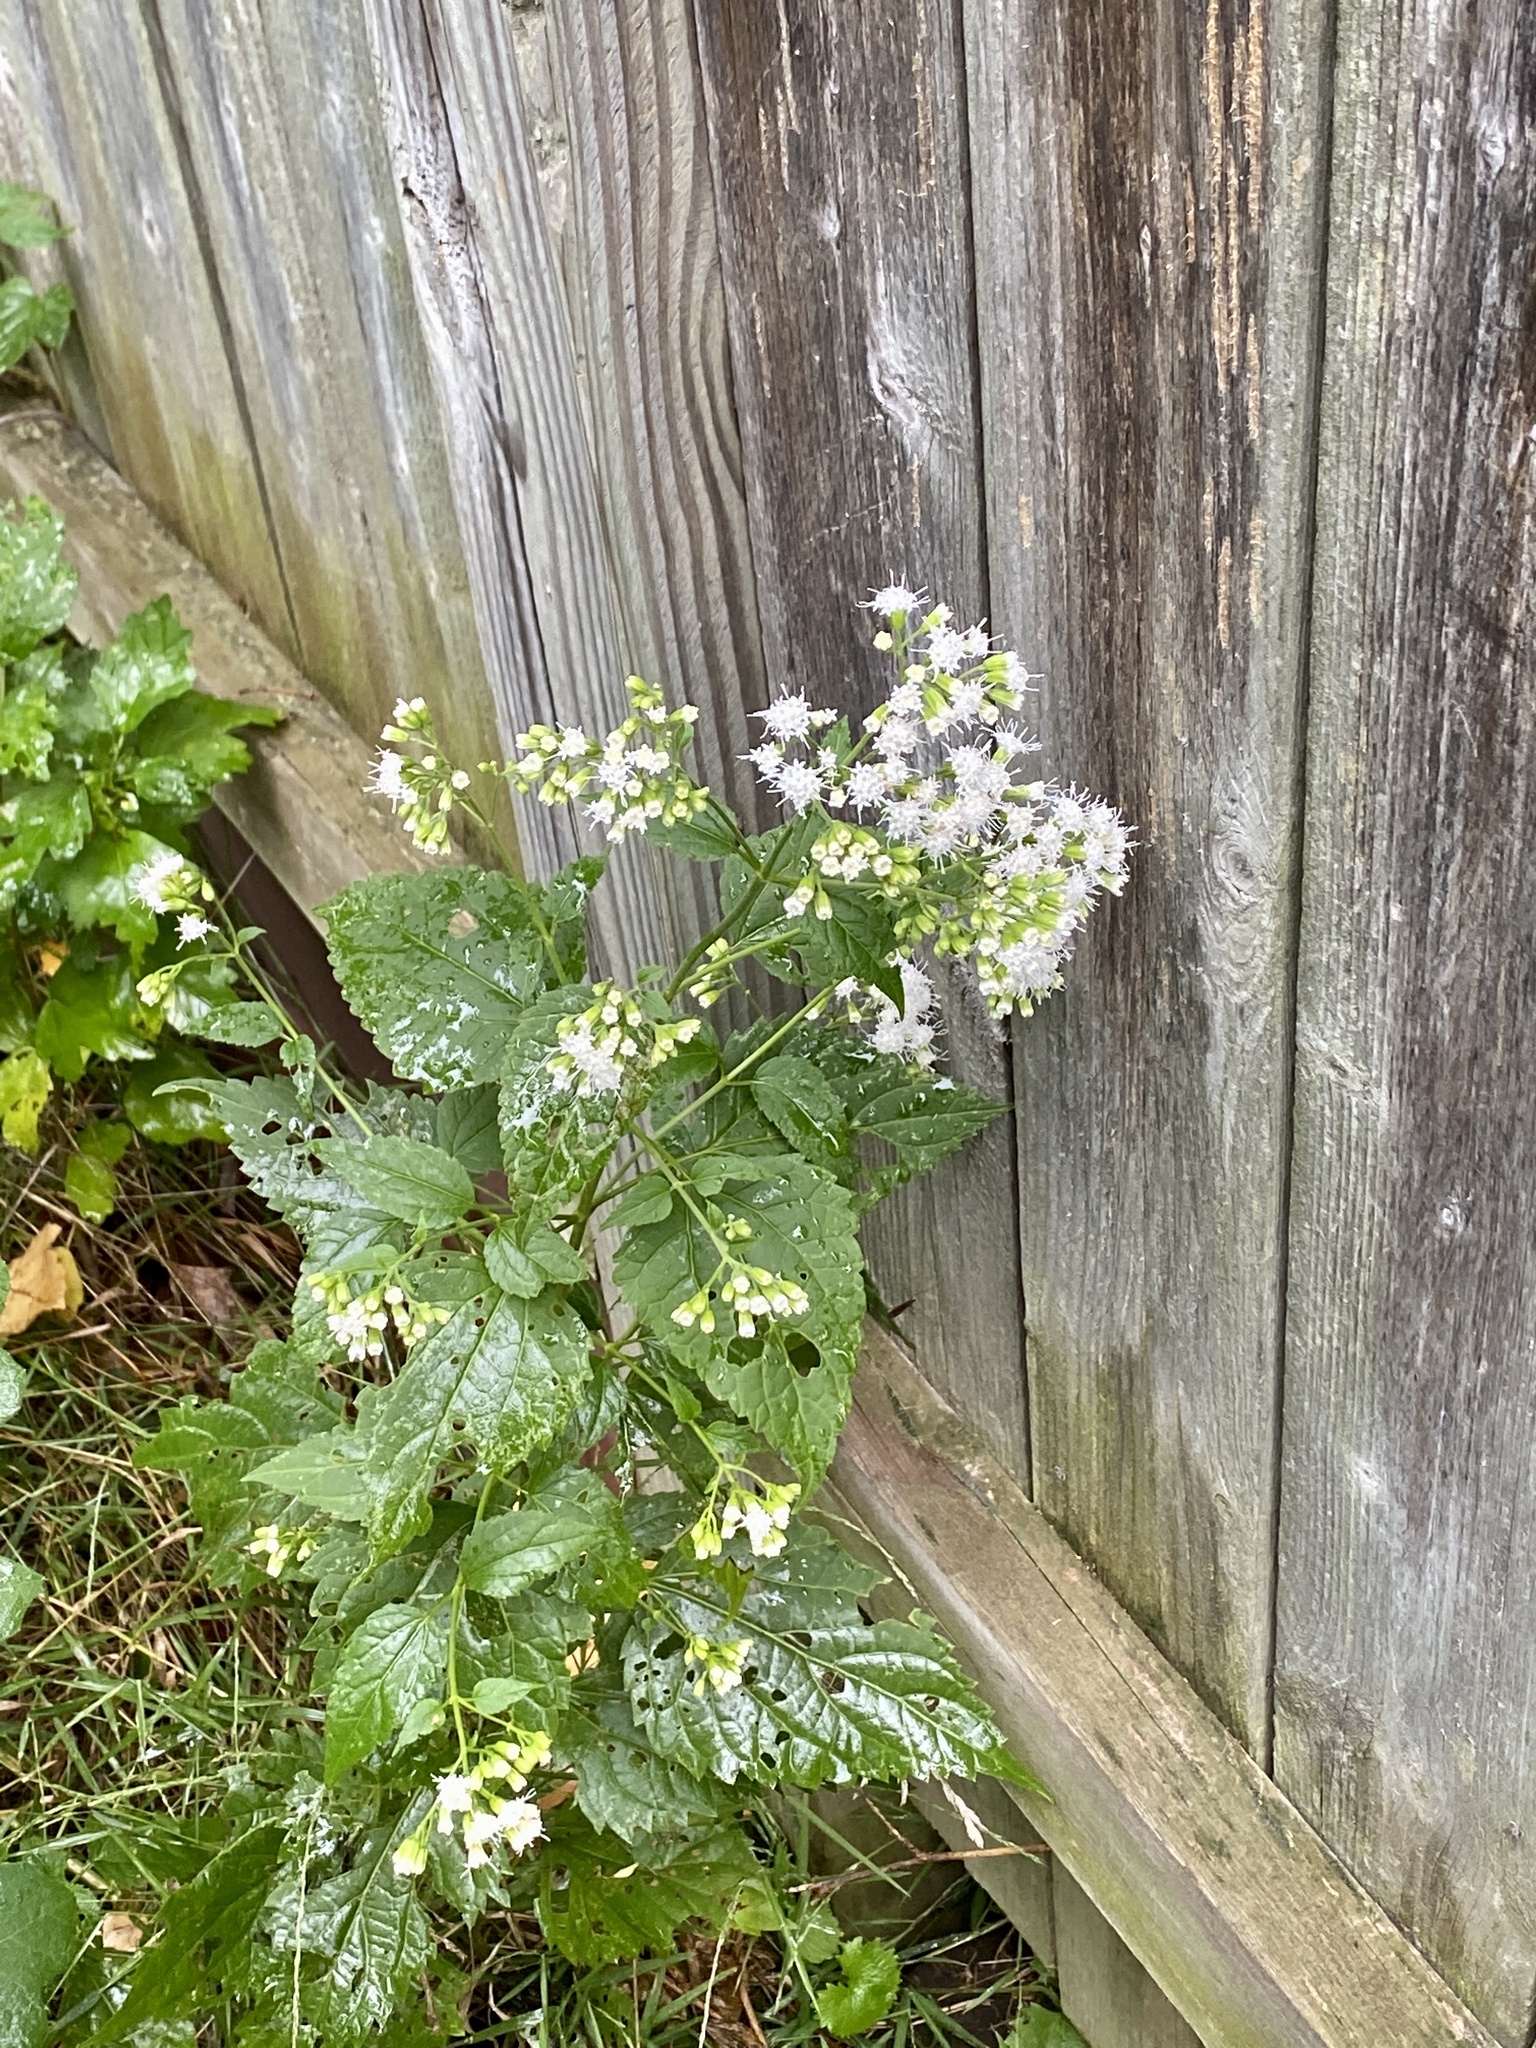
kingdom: Plantae
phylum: Tracheophyta
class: Magnoliopsida
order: Asterales
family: Asteraceae
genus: Ageratina
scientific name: Ageratina altissima
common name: White snakeroot
